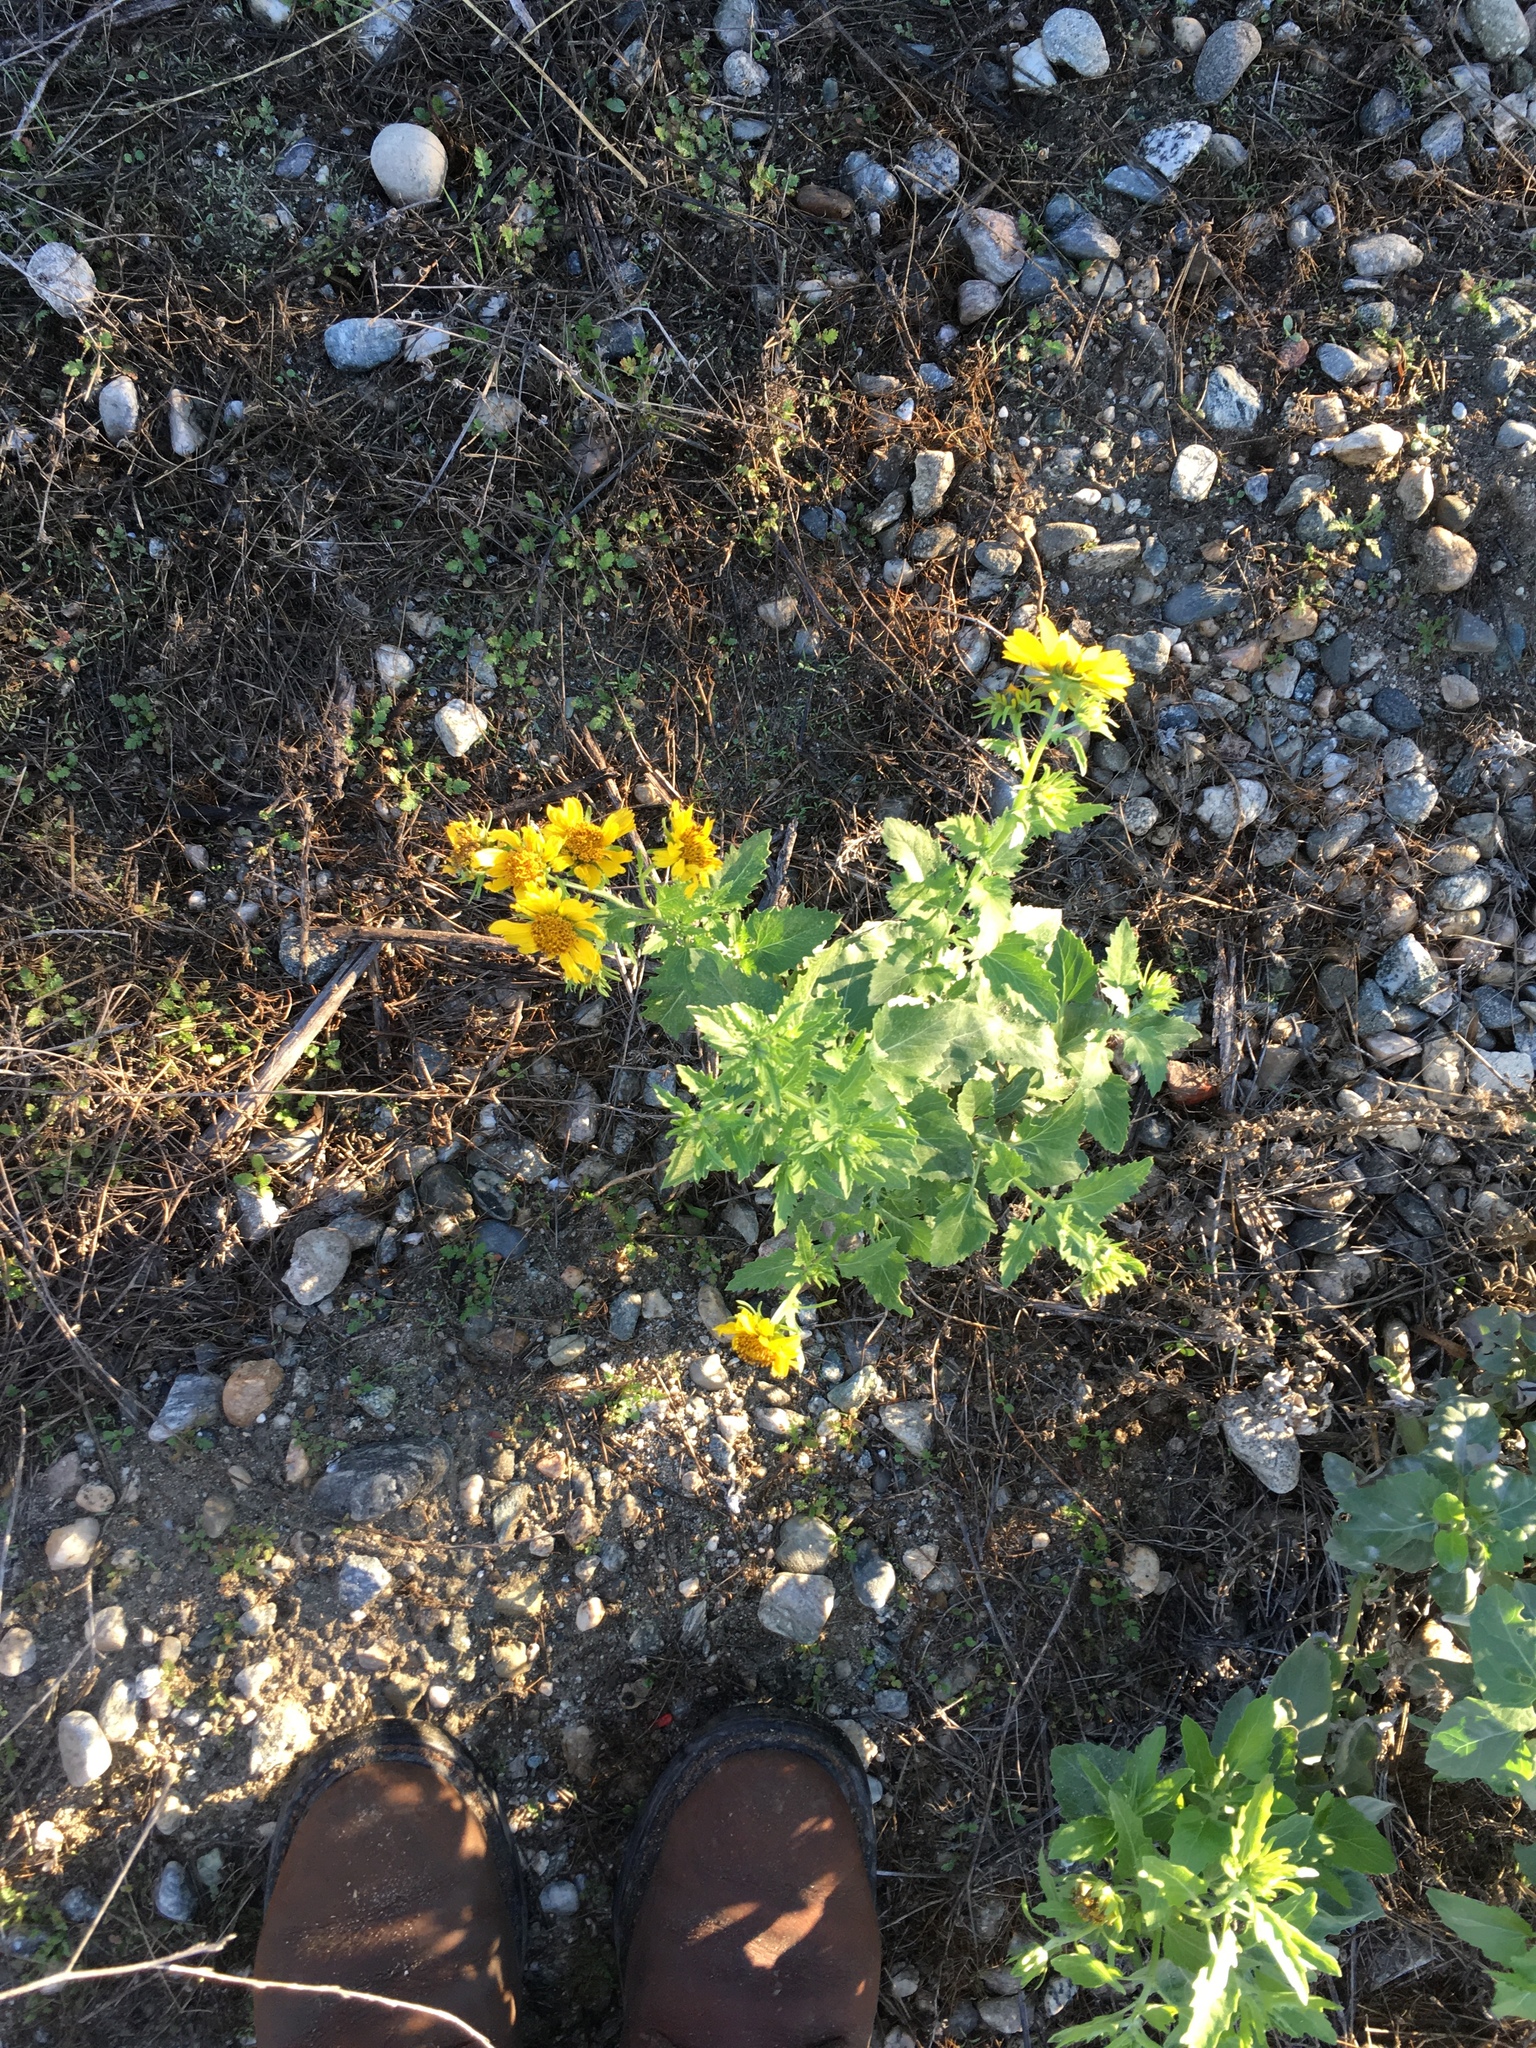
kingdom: Plantae
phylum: Tracheophyta
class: Magnoliopsida
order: Asterales
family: Asteraceae
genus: Verbesina
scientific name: Verbesina encelioides
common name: Golden crownbeard
